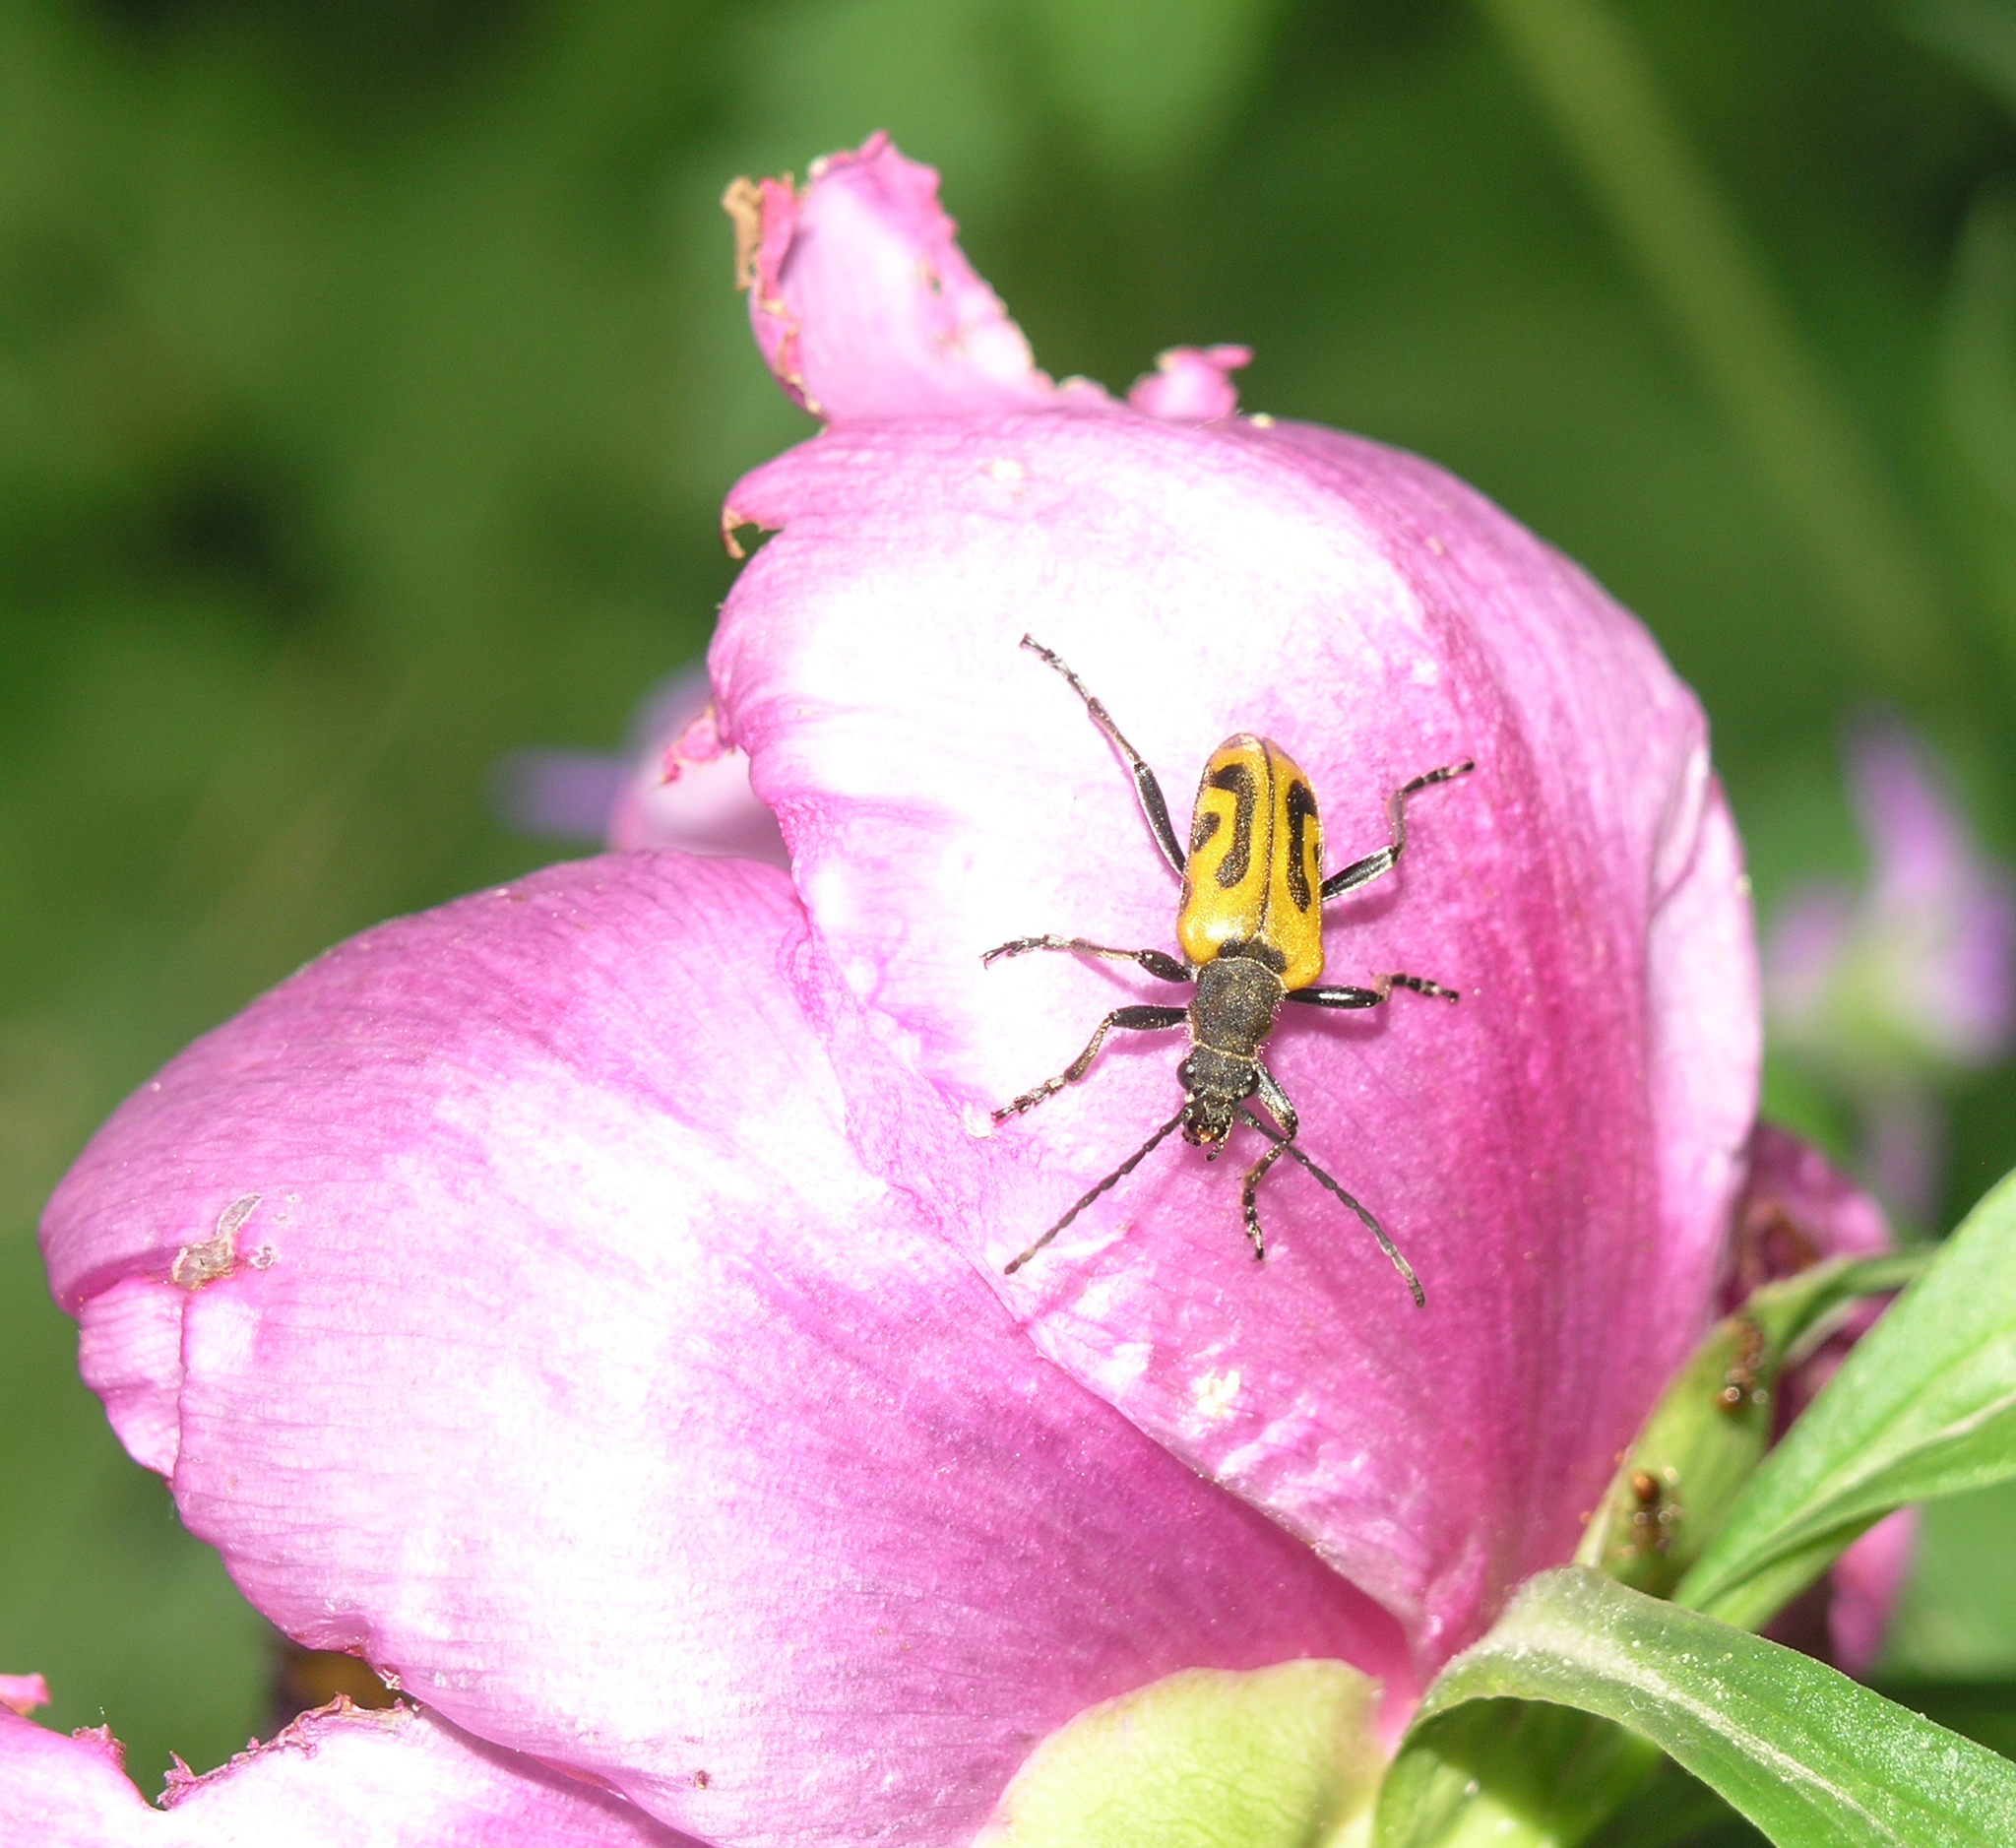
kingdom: Animalia
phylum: Arthropoda
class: Insecta
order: Coleoptera
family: Cerambycidae
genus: Brachyta
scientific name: Brachyta interrogationis
